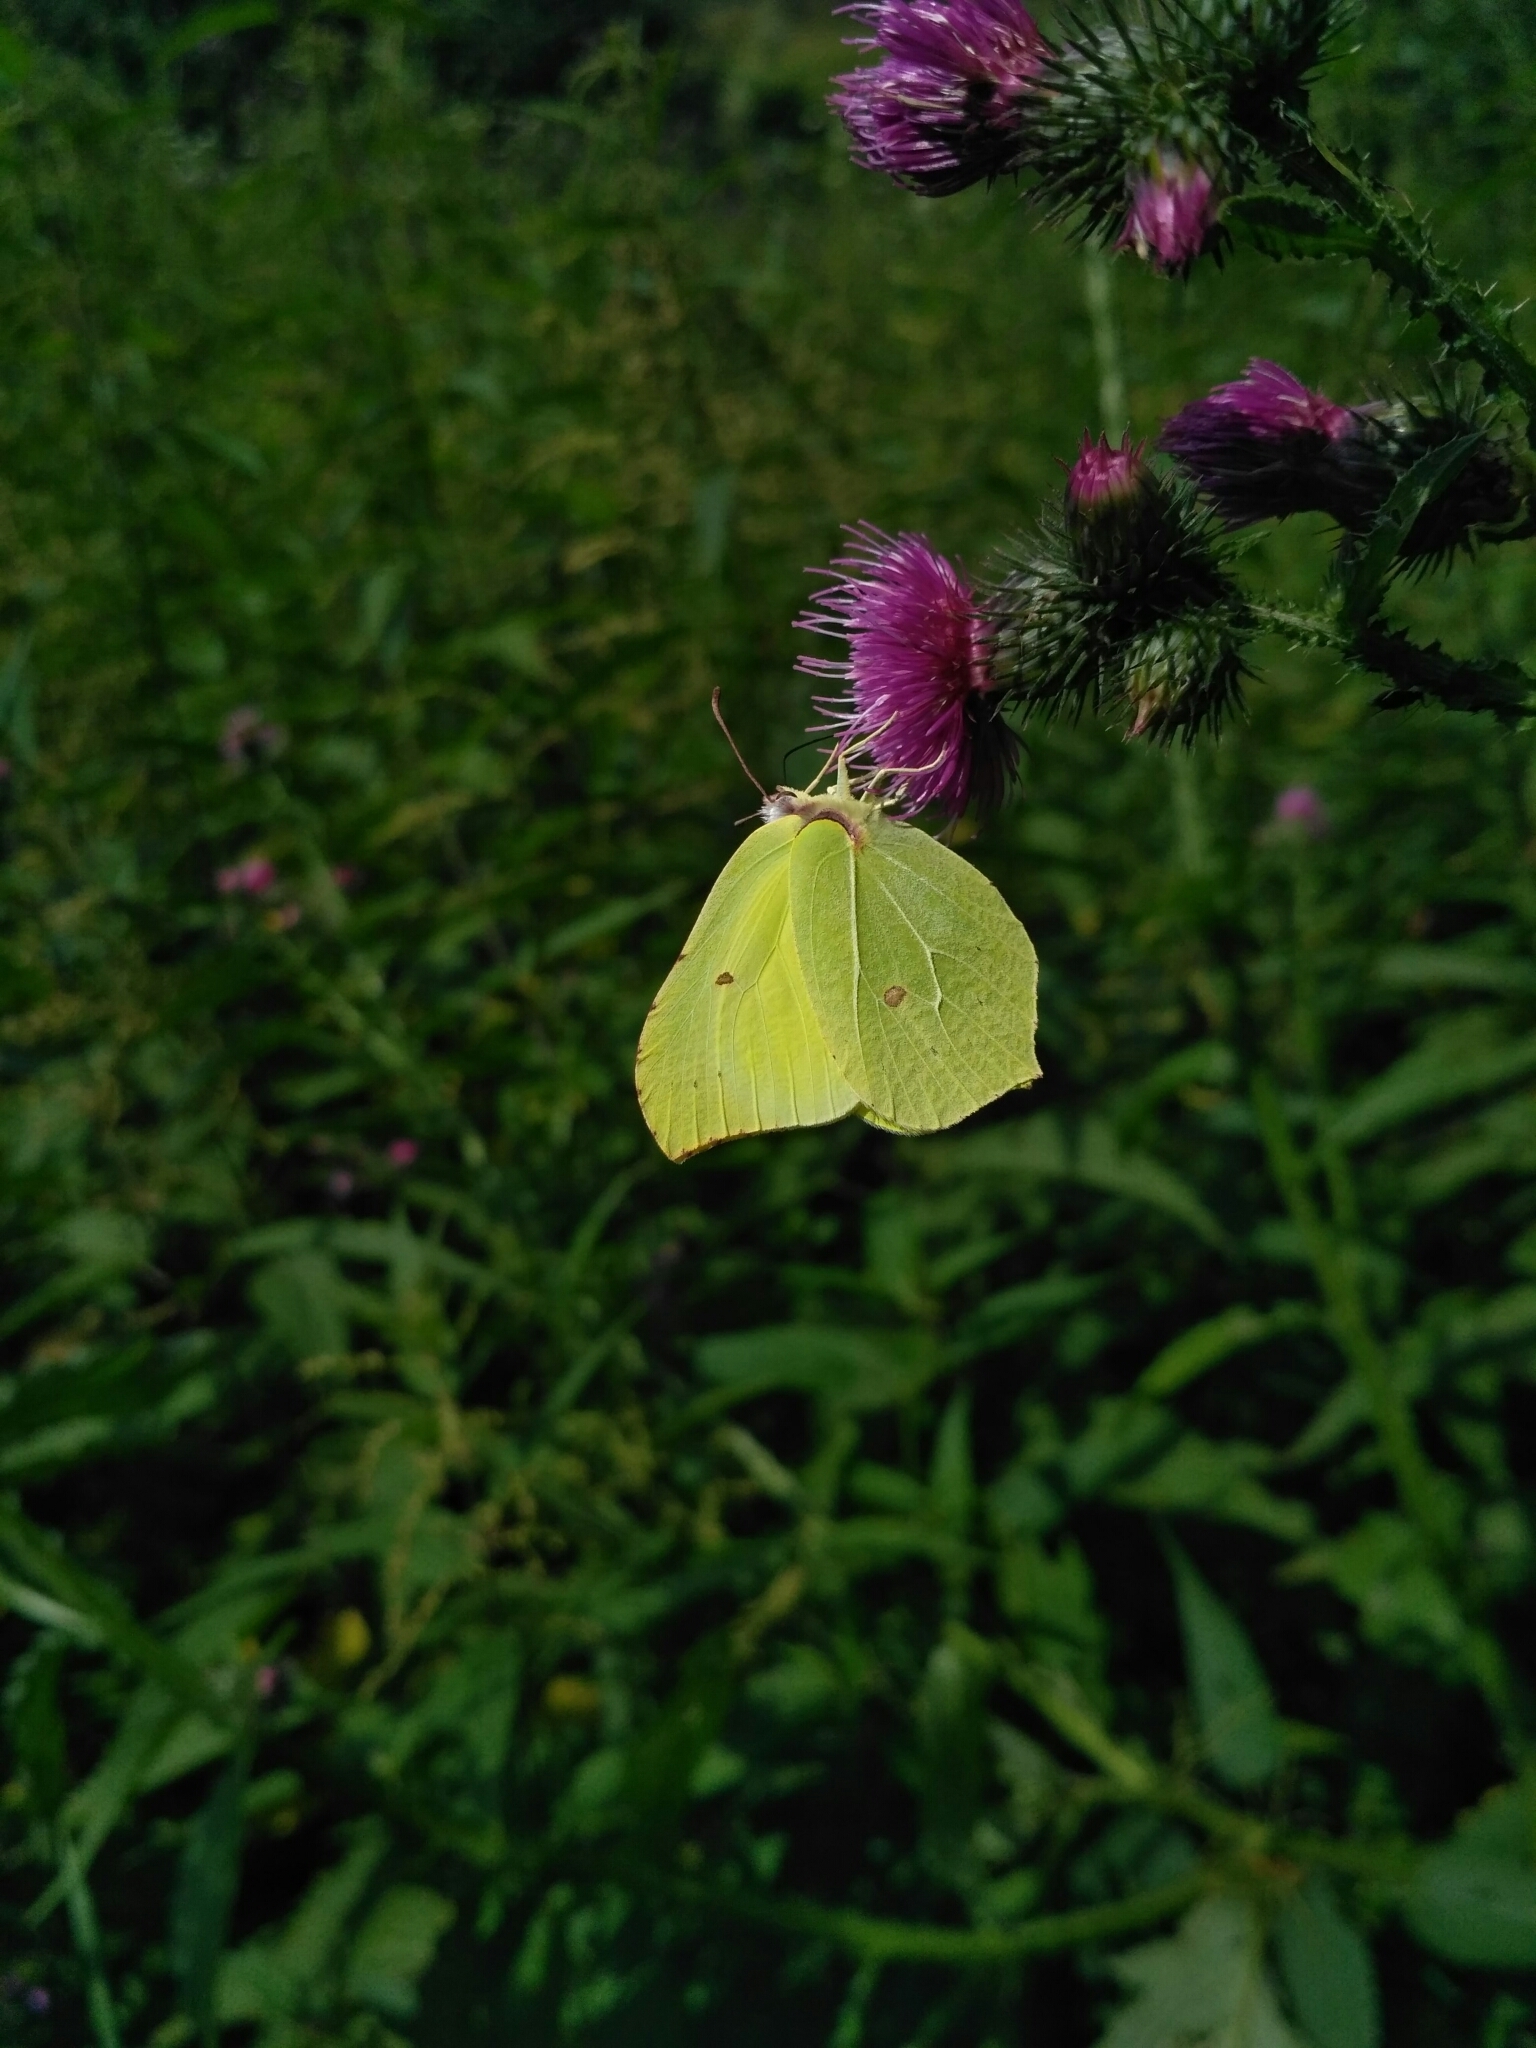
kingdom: Animalia
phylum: Arthropoda
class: Insecta
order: Lepidoptera
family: Pieridae
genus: Gonepteryx
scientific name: Gonepteryx rhamni
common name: Brimstone
